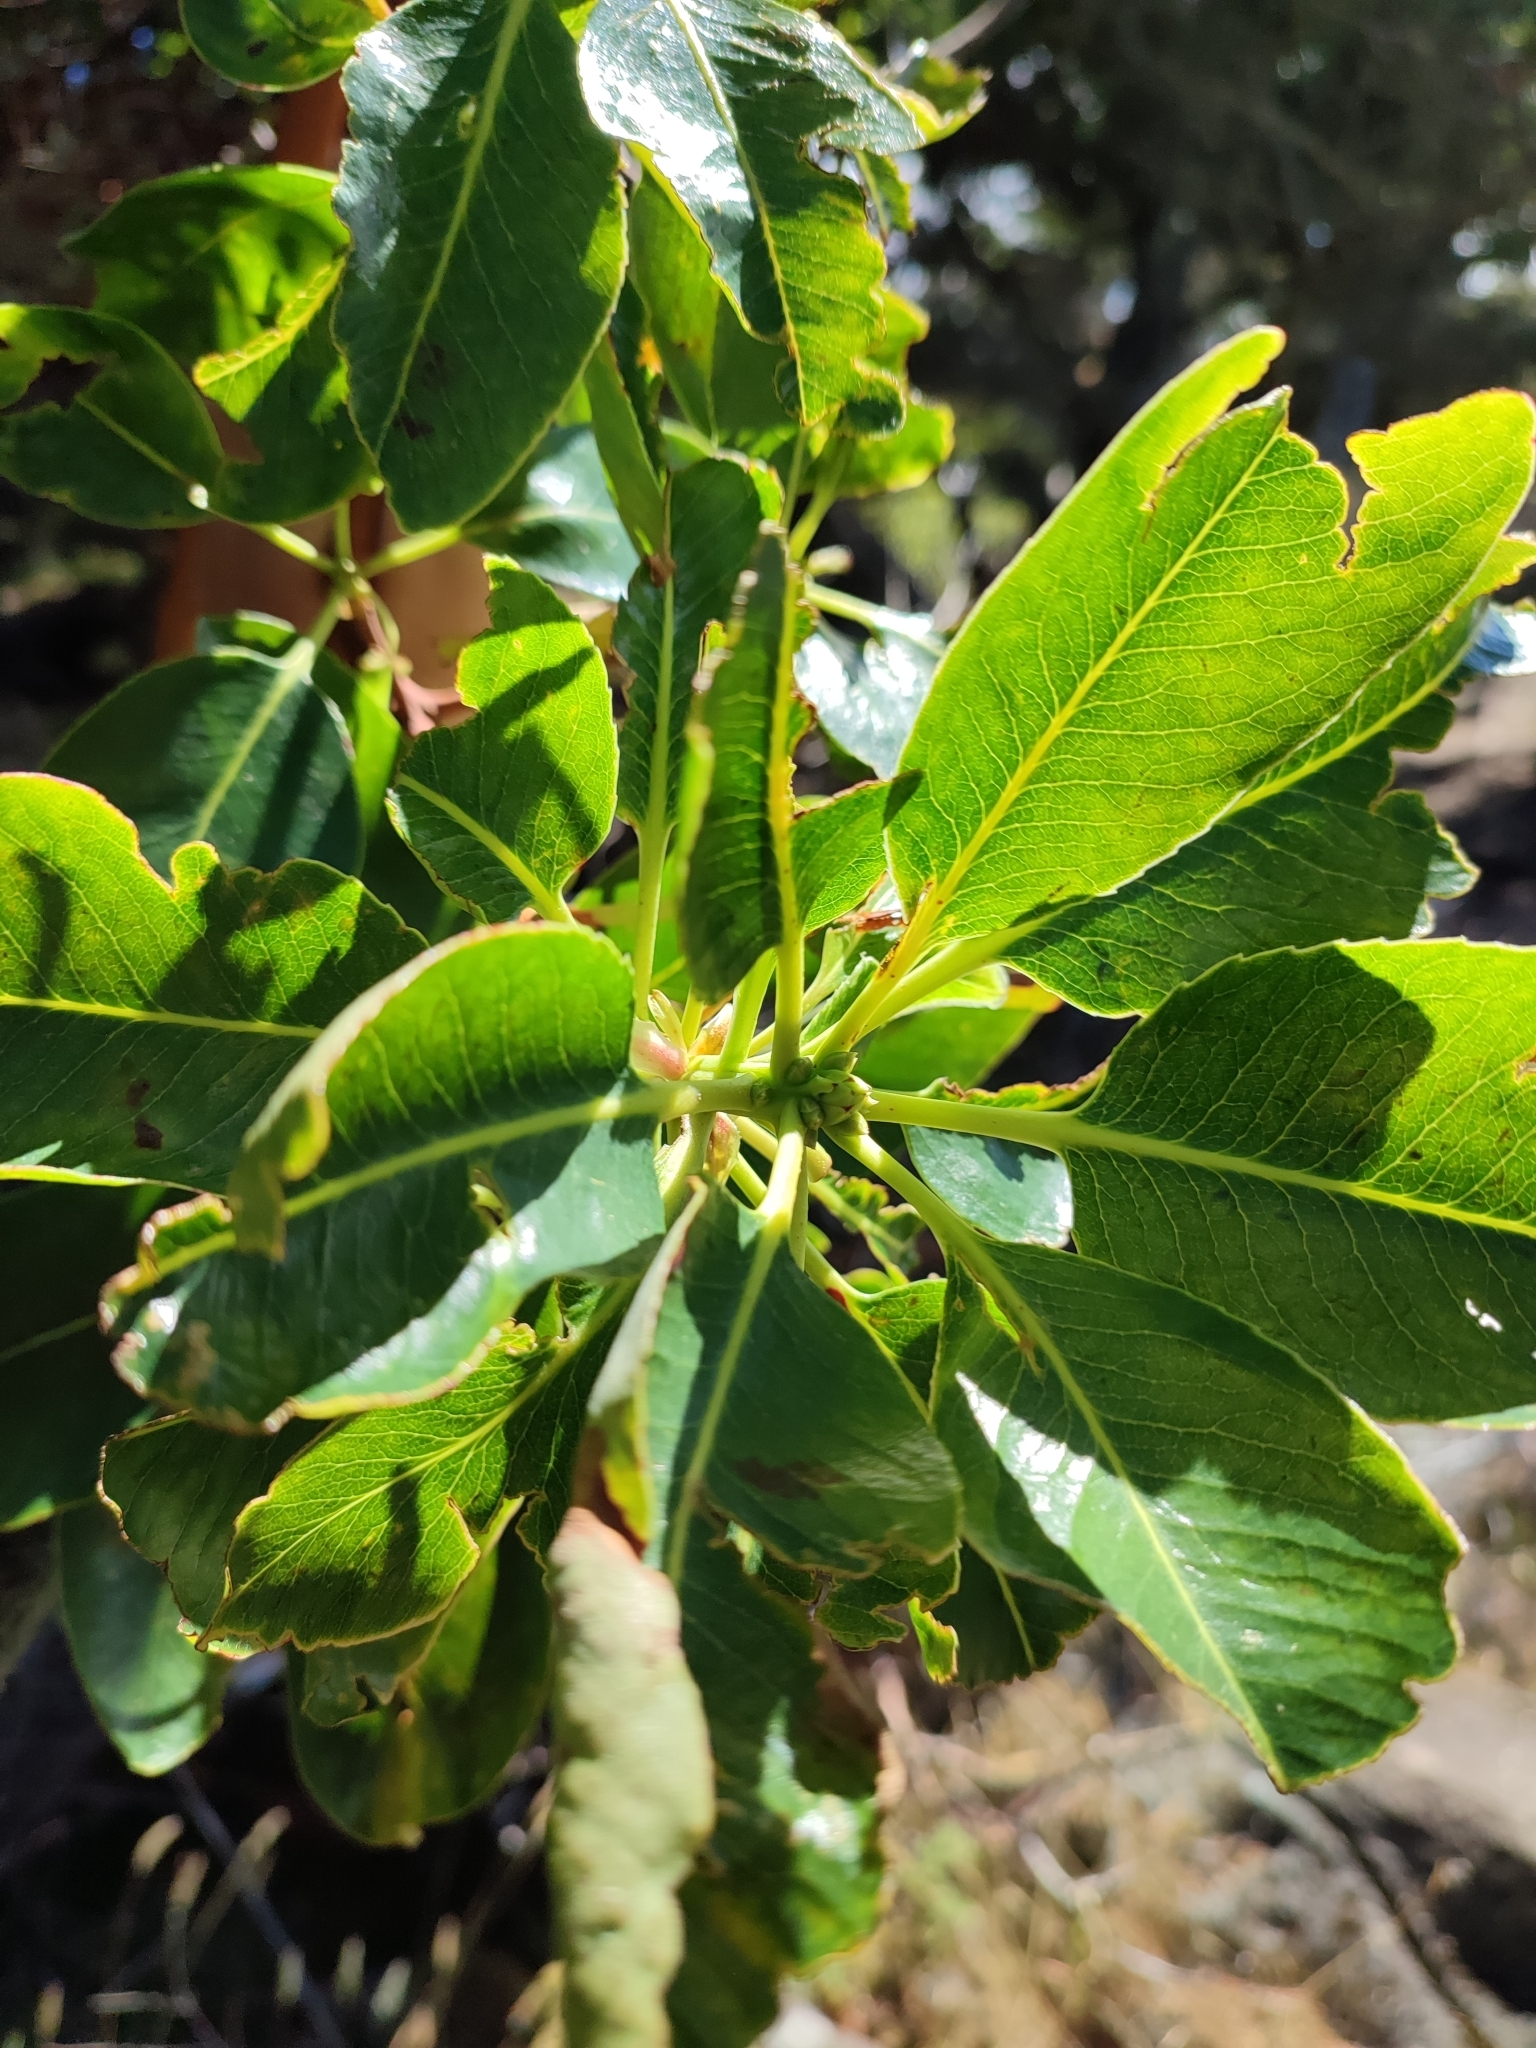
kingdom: Plantae
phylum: Tracheophyta
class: Magnoliopsida
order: Ericales
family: Ericaceae
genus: Arbutus
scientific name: Arbutus menziesii
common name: Pacific madrone
